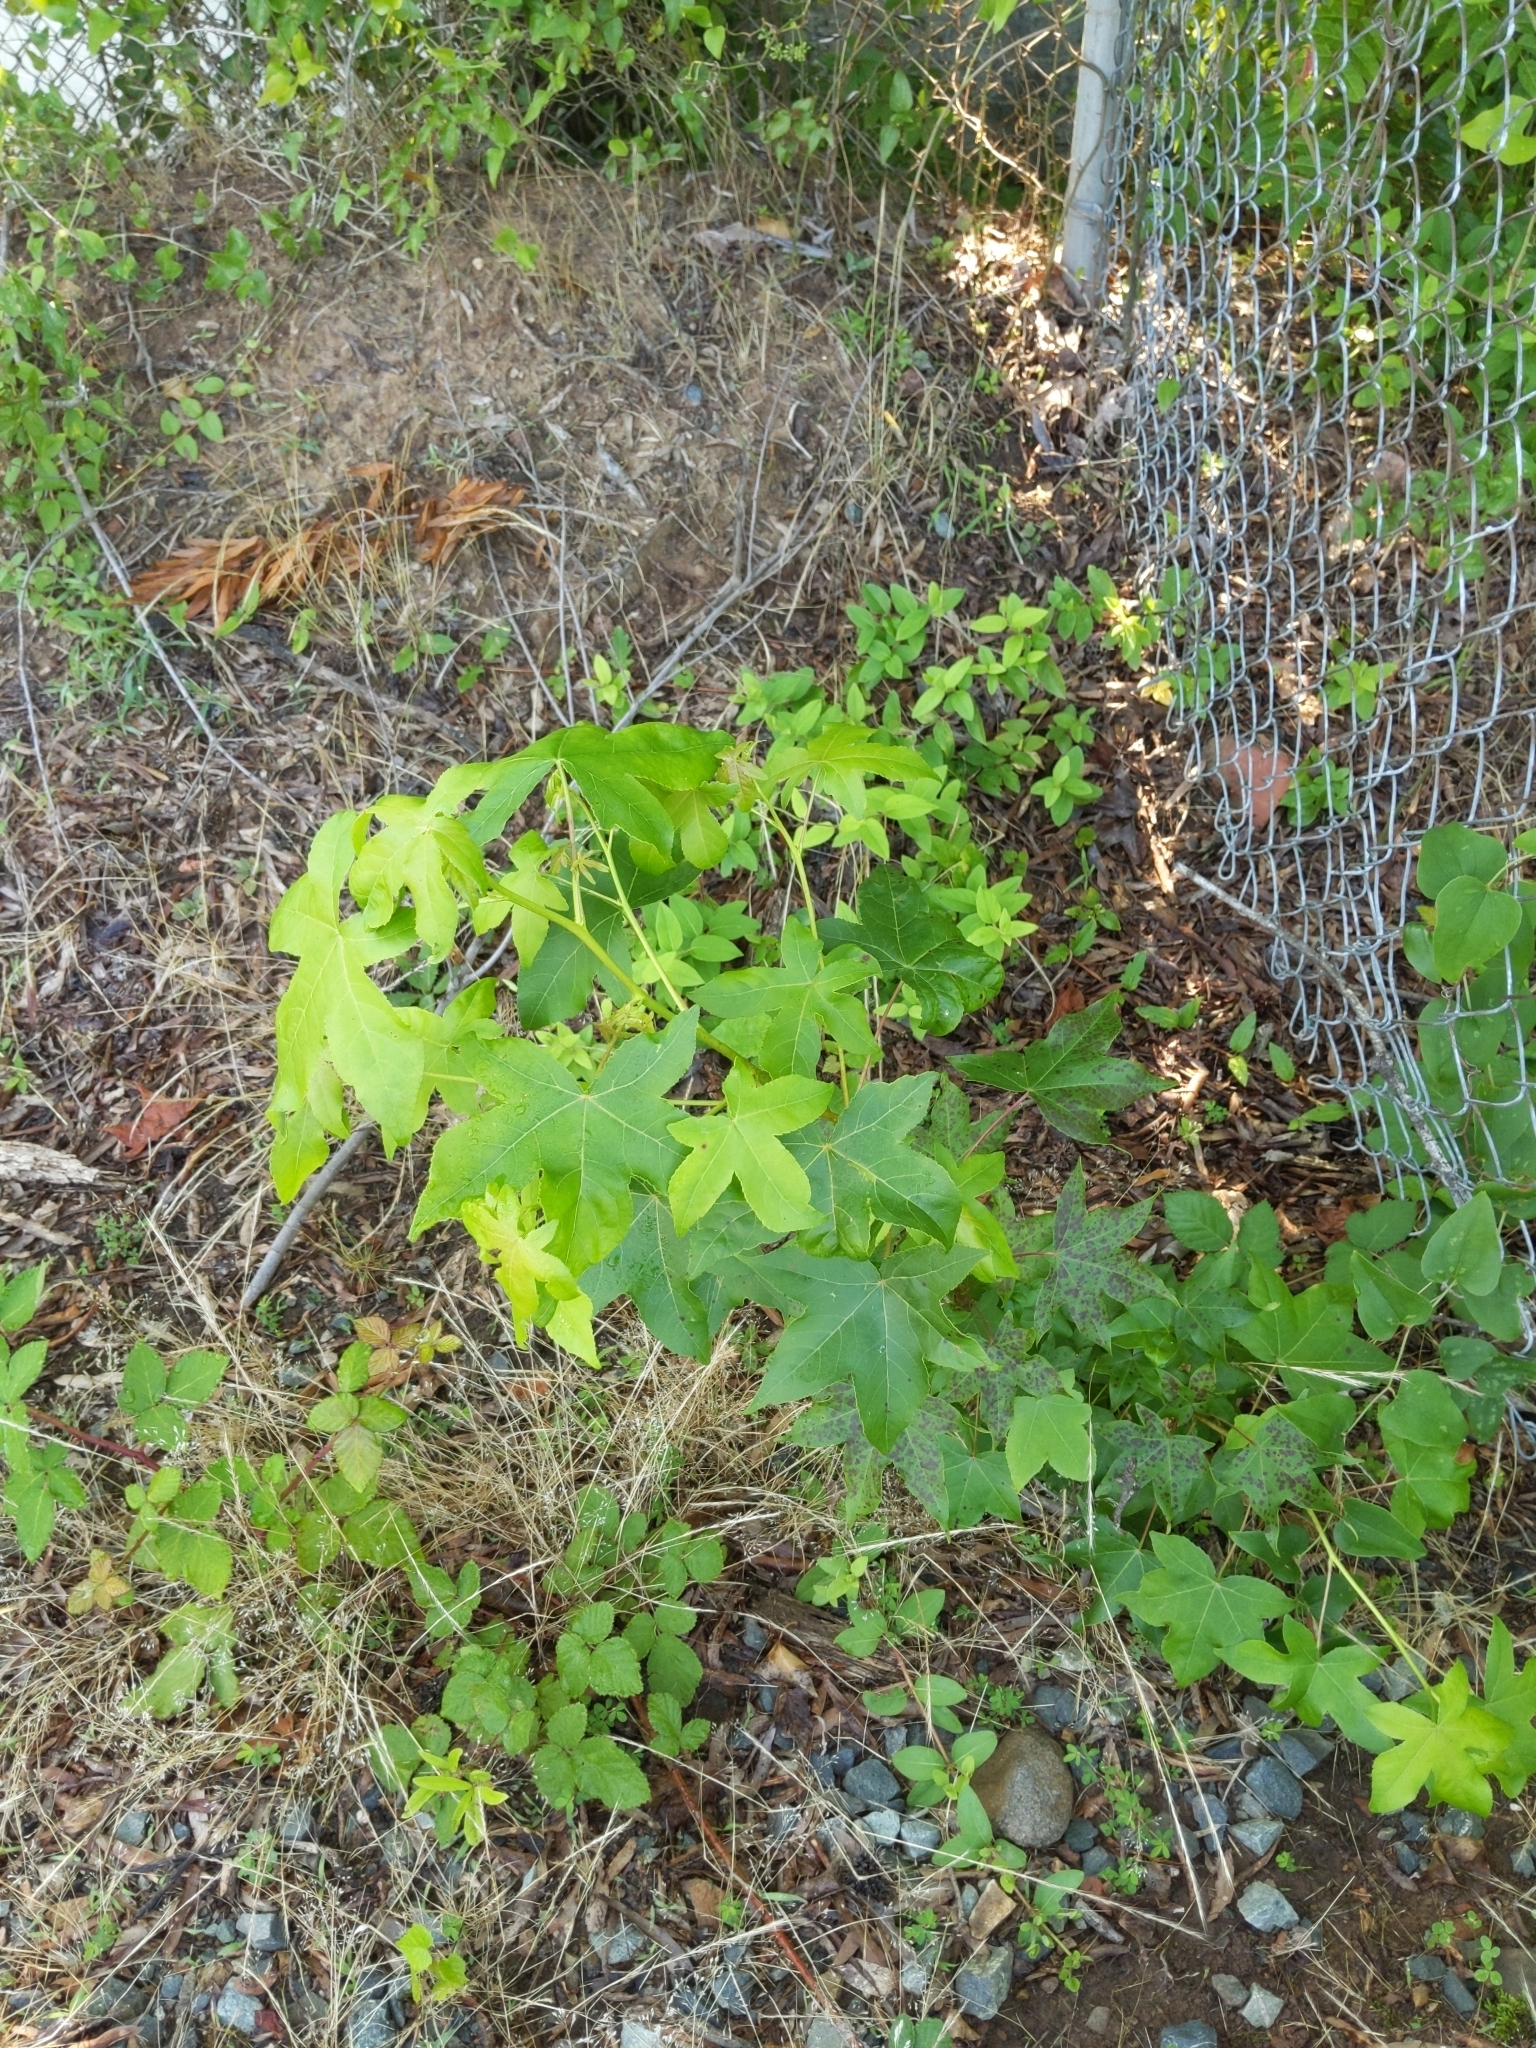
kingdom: Plantae
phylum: Tracheophyta
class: Magnoliopsida
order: Saxifragales
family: Altingiaceae
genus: Liquidambar
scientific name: Liquidambar styraciflua
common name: Sweet gum
